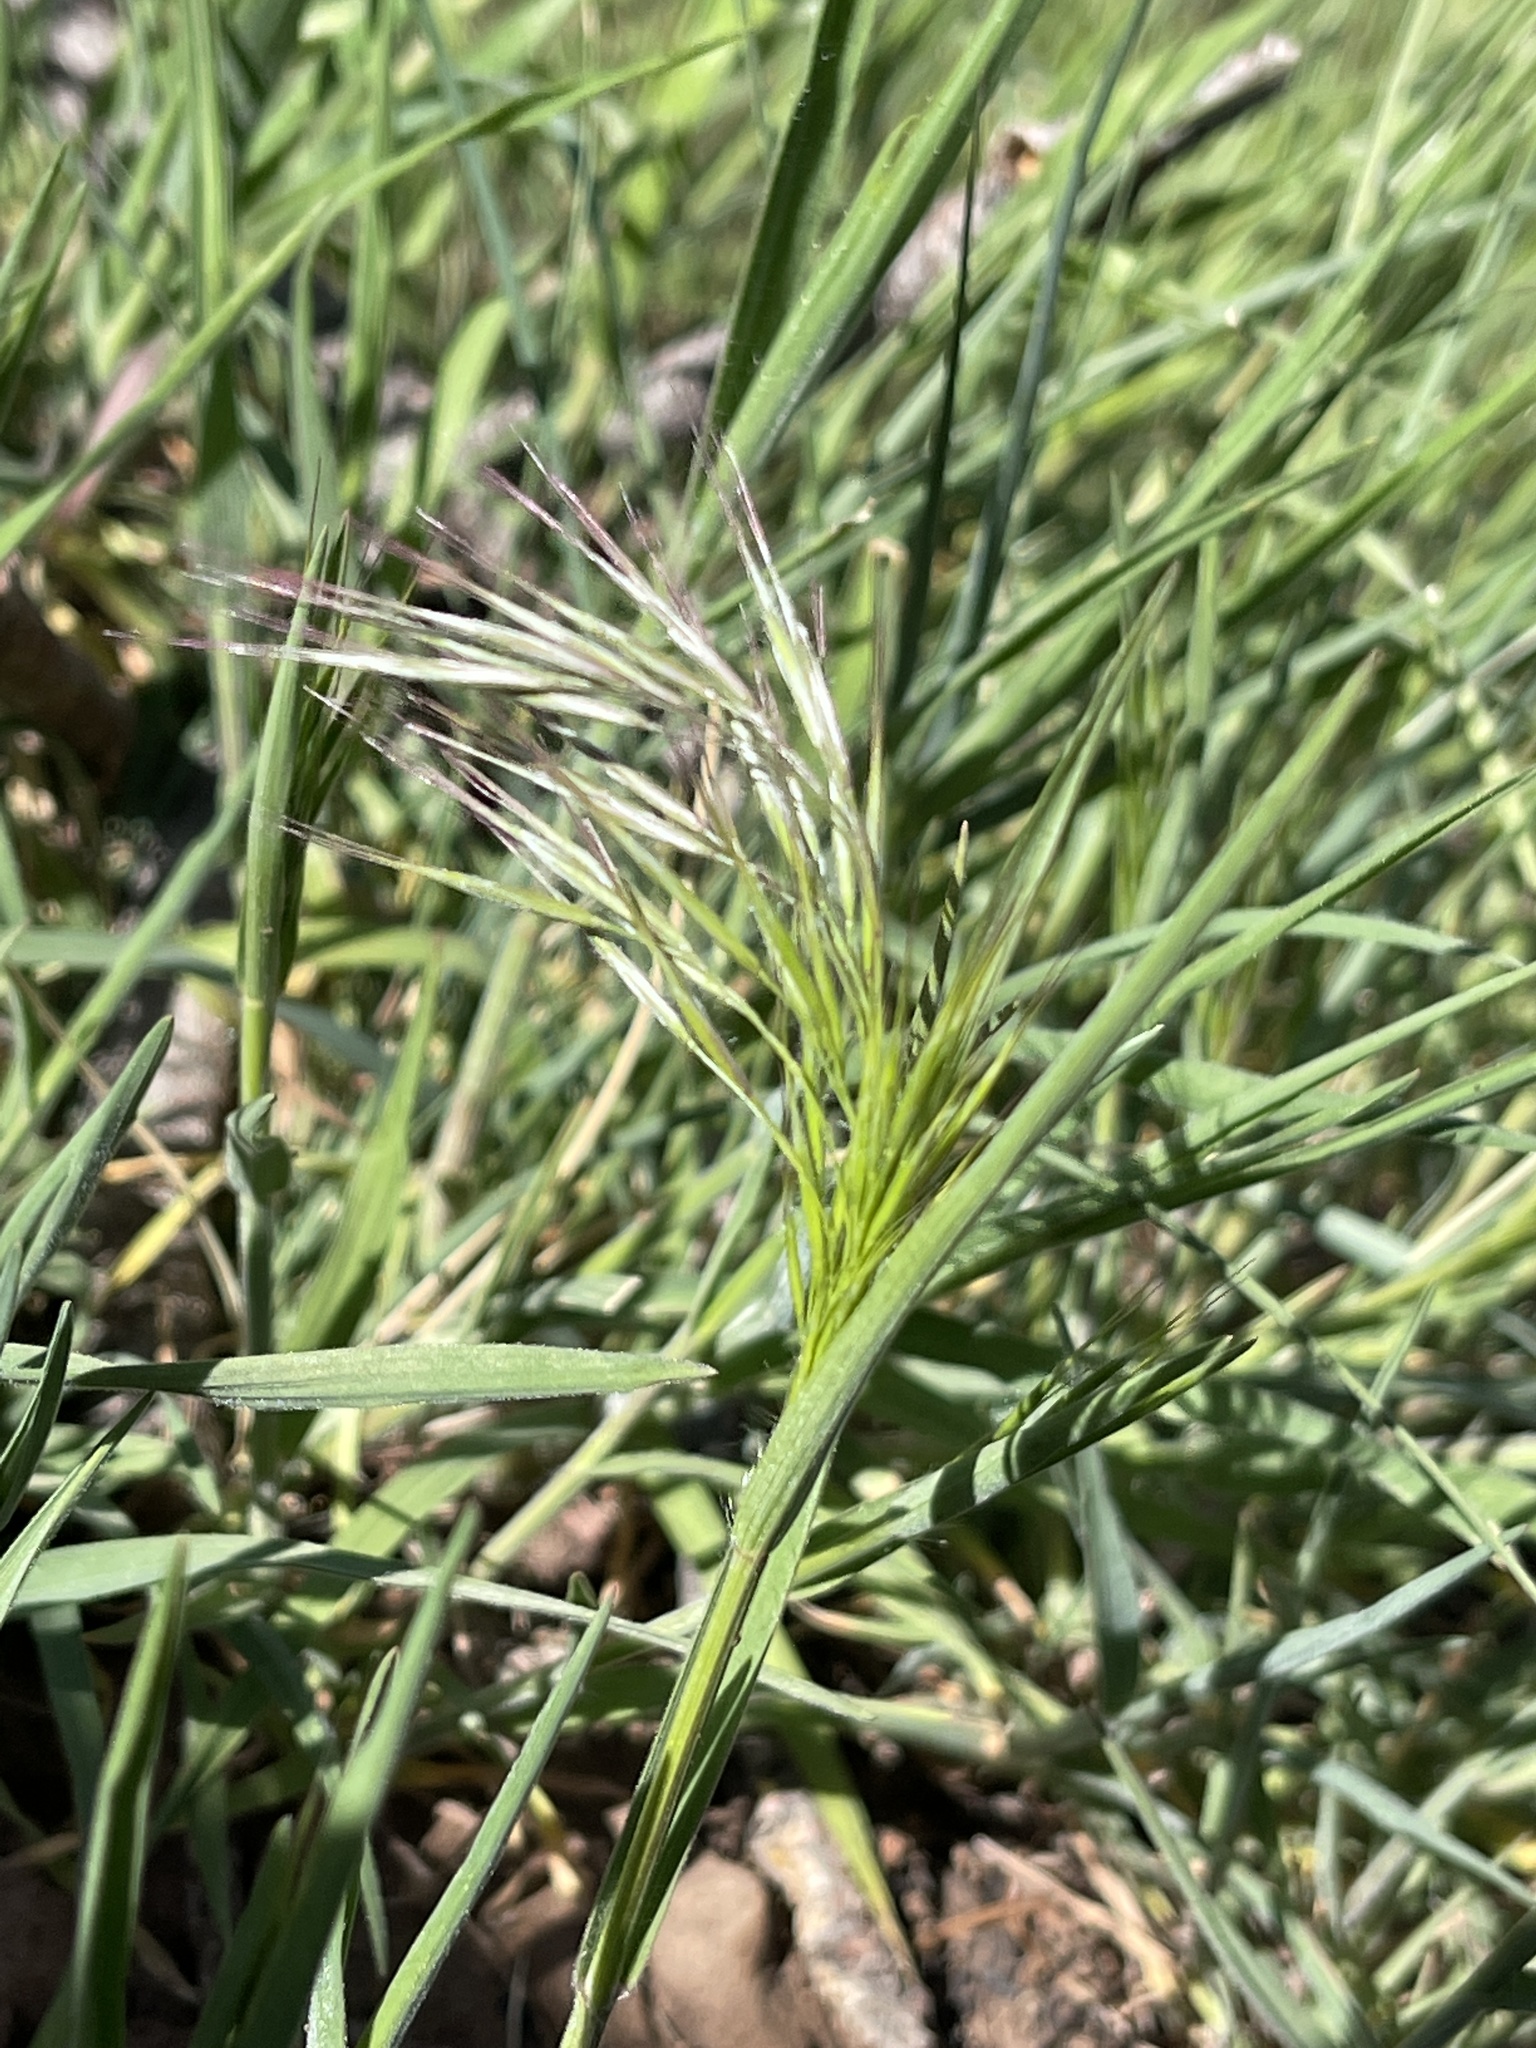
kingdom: Plantae
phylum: Tracheophyta
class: Liliopsida
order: Poales
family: Poaceae
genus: Bromus
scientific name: Bromus tectorum
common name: Cheatgrass
